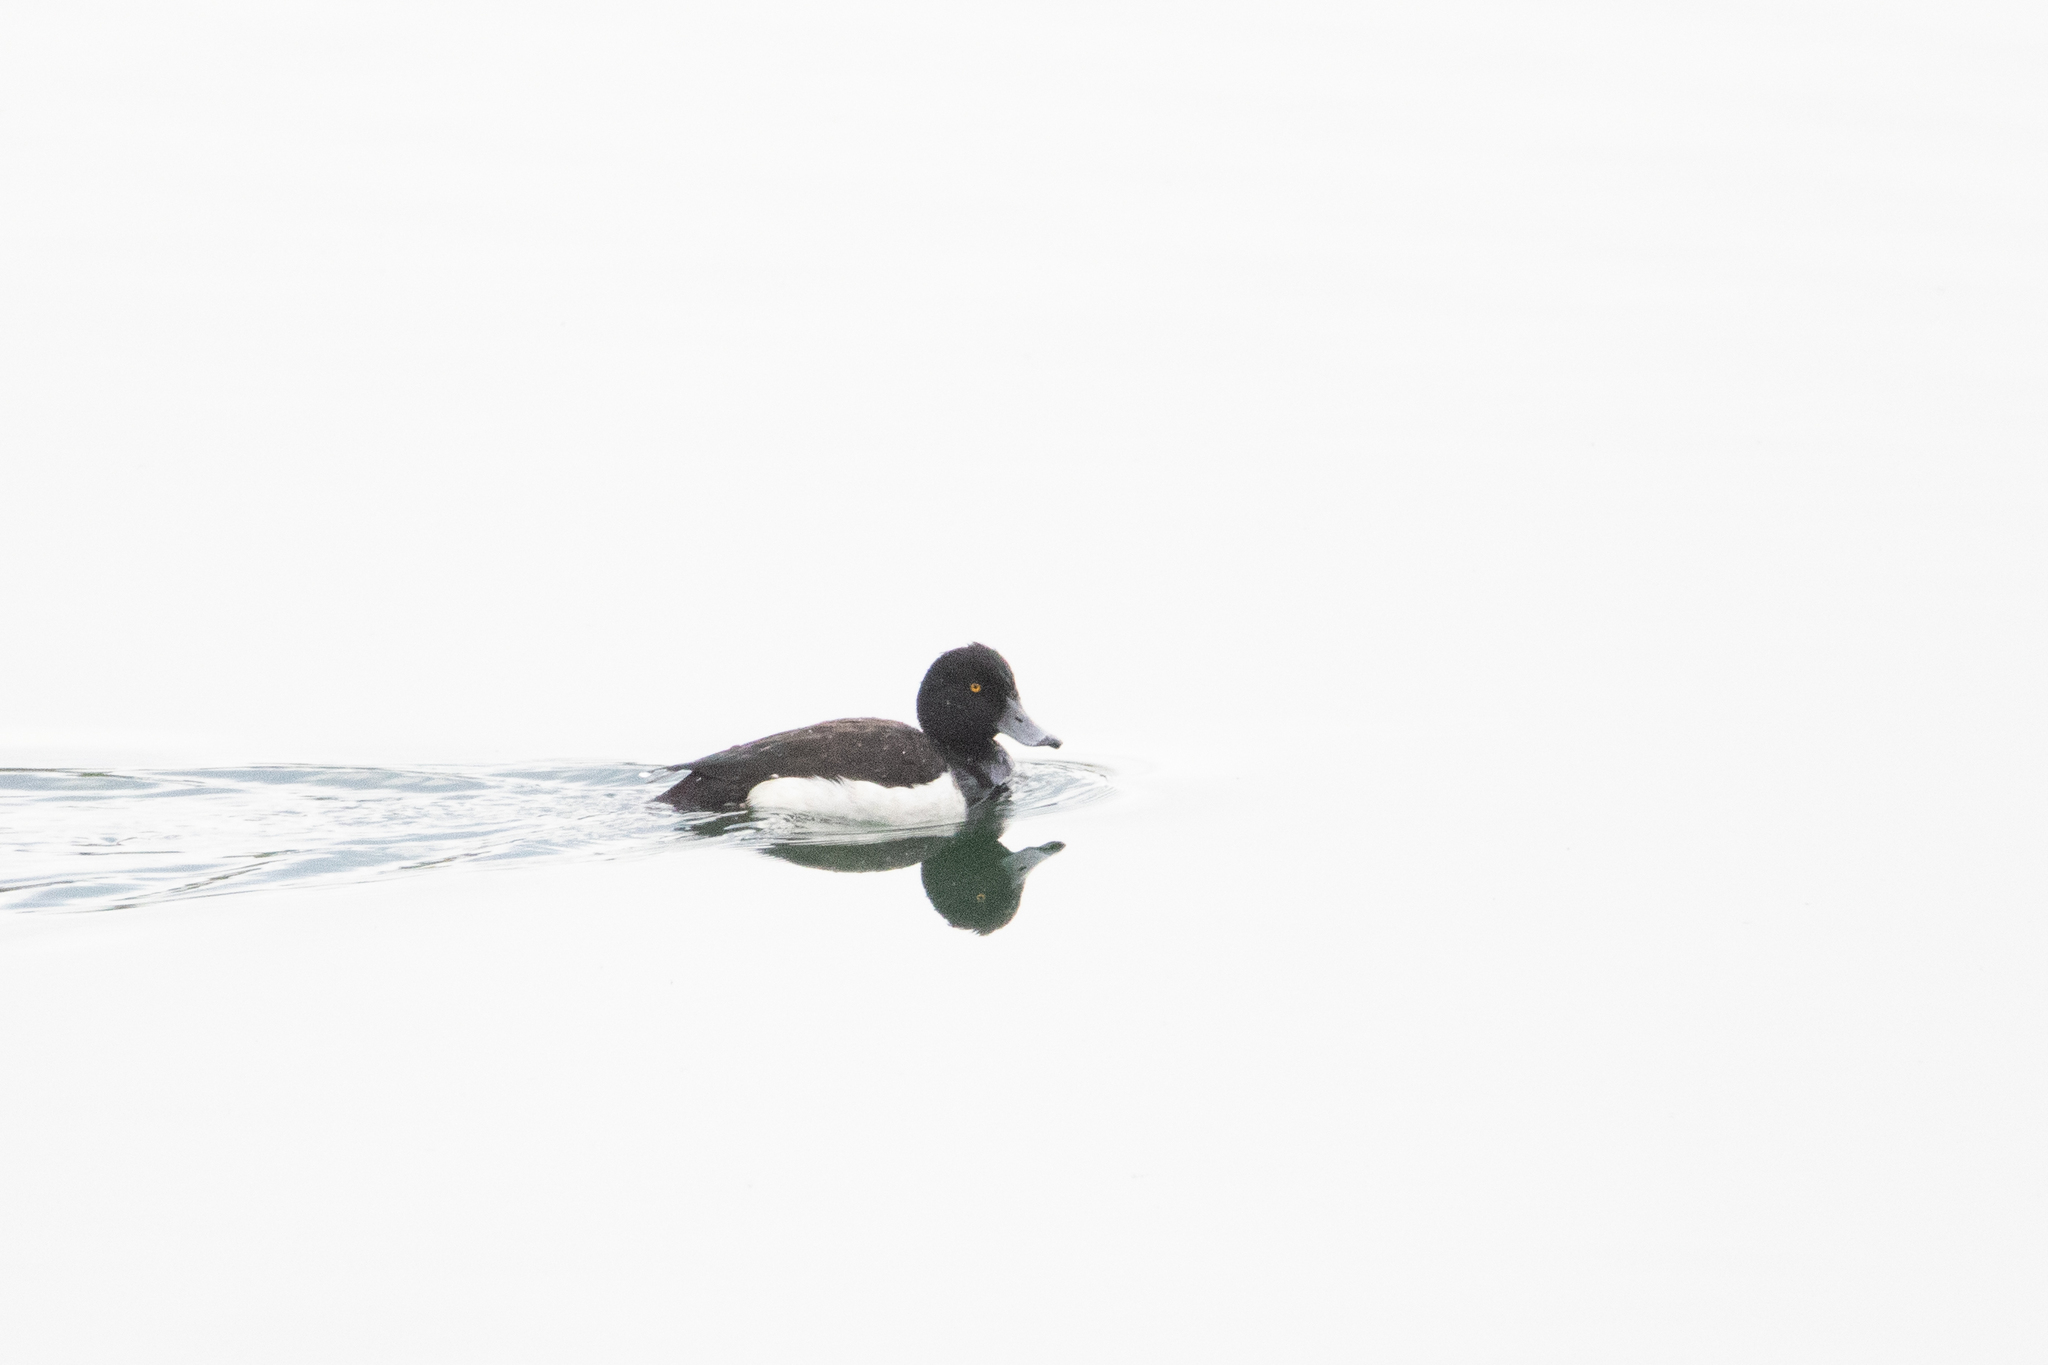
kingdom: Animalia
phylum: Chordata
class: Aves
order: Anseriformes
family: Anatidae
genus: Aythya
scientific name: Aythya fuligula
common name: Tufted duck
